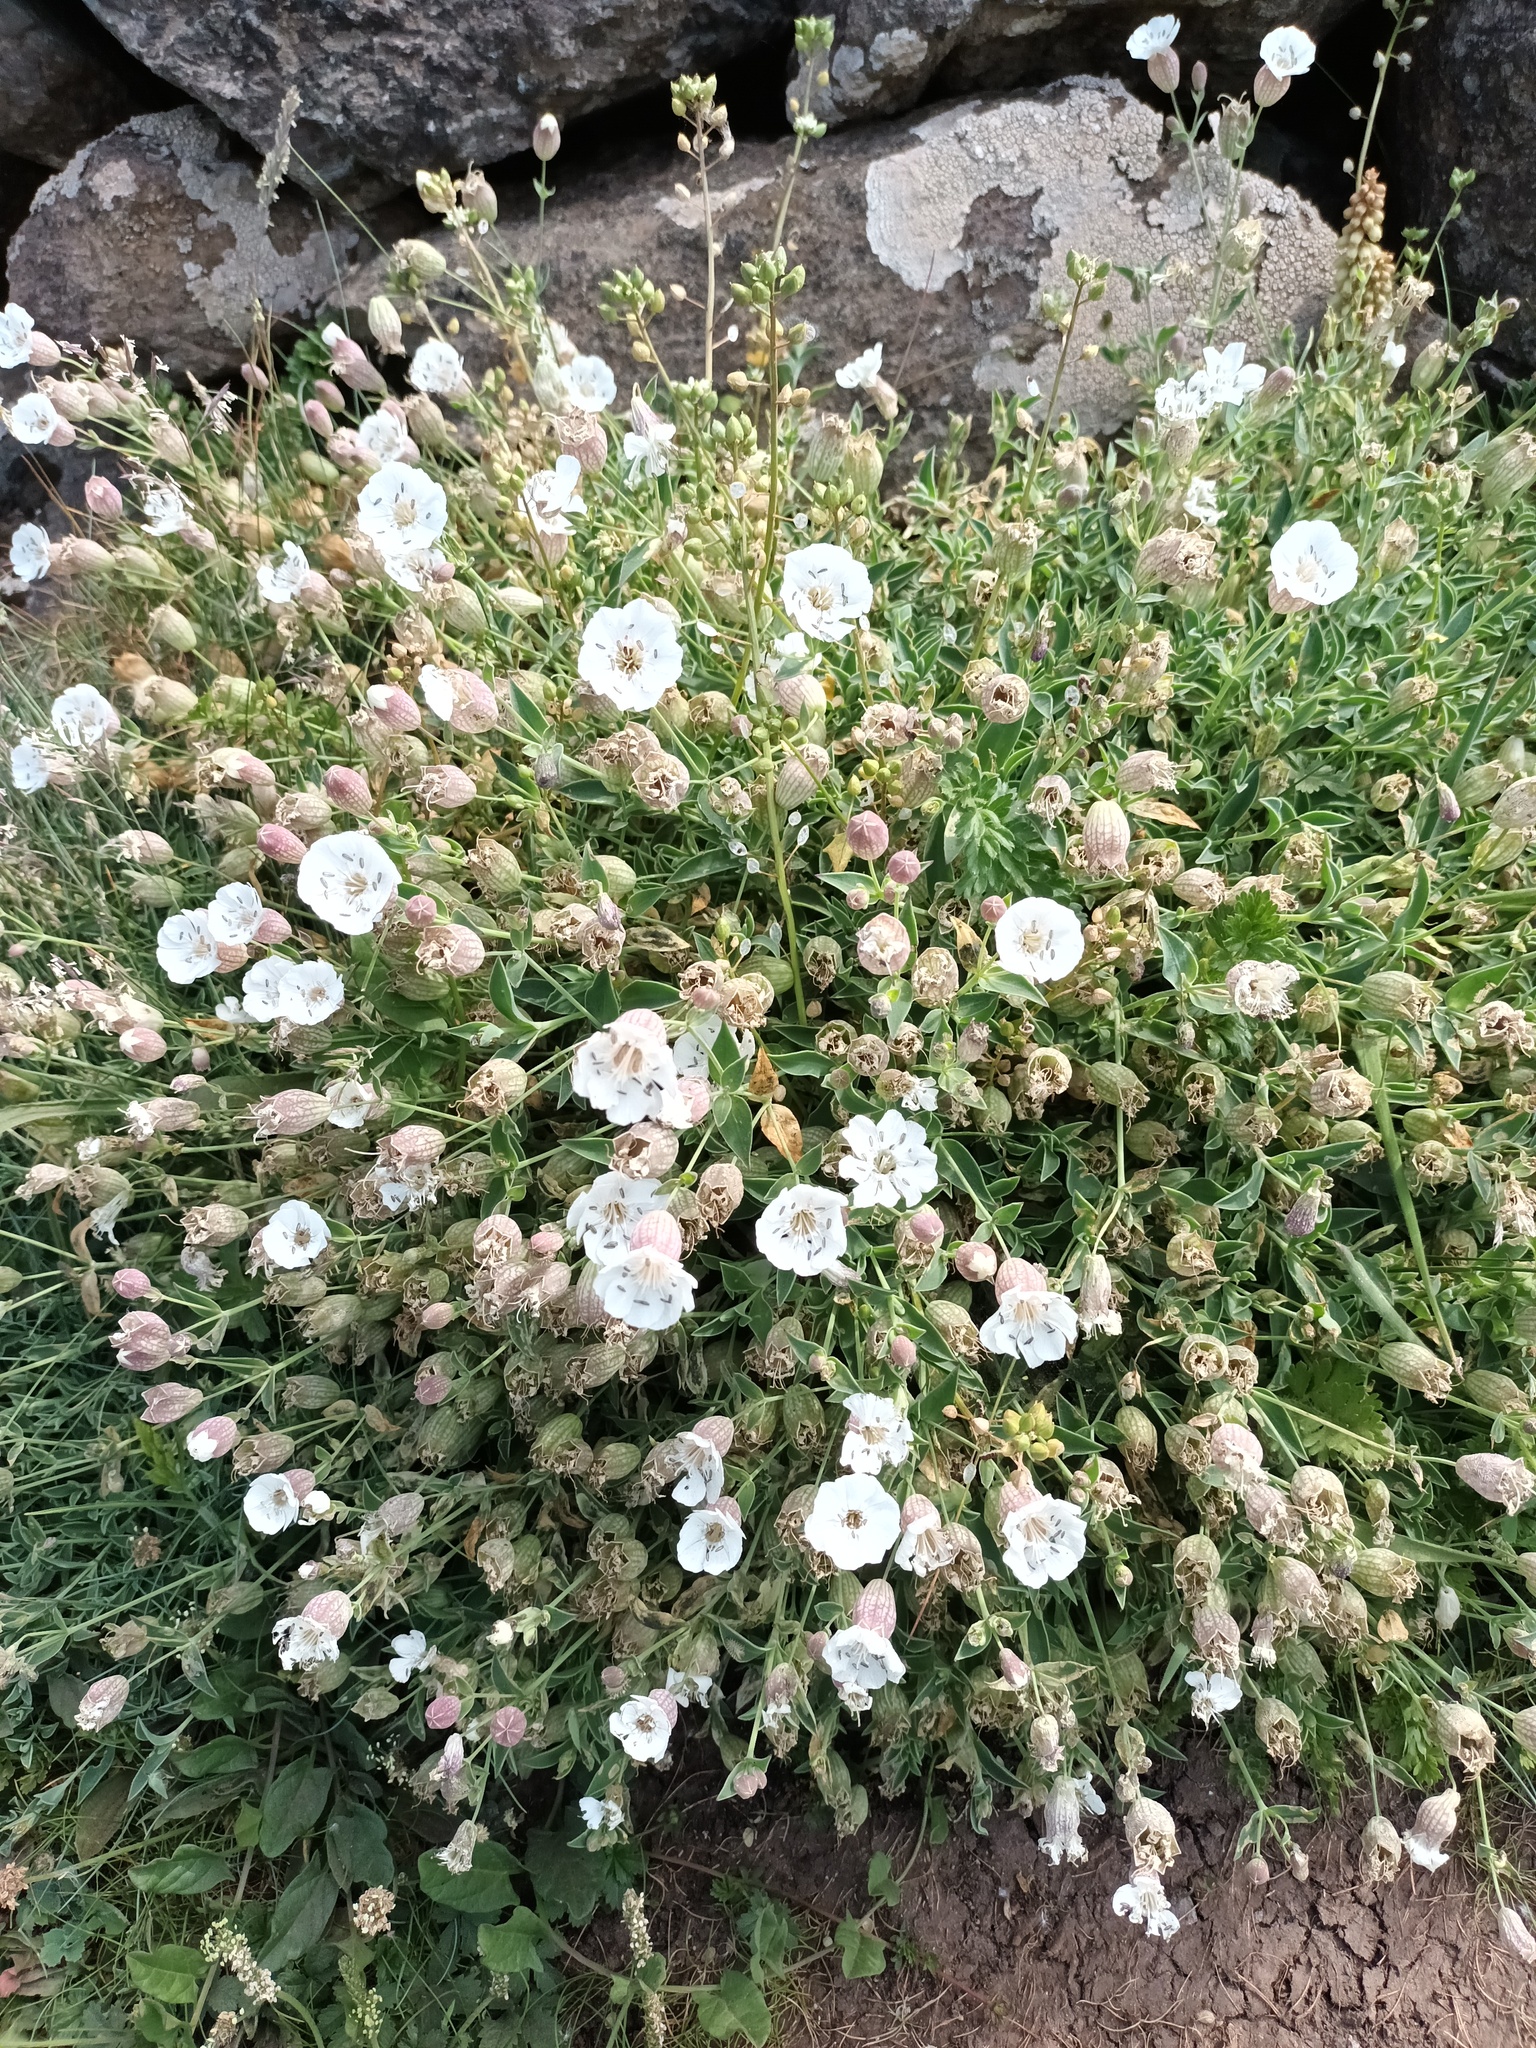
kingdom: Plantae
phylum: Tracheophyta
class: Magnoliopsida
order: Caryophyllales
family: Caryophyllaceae
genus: Silene
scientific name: Silene uniflora
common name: Sea campion
